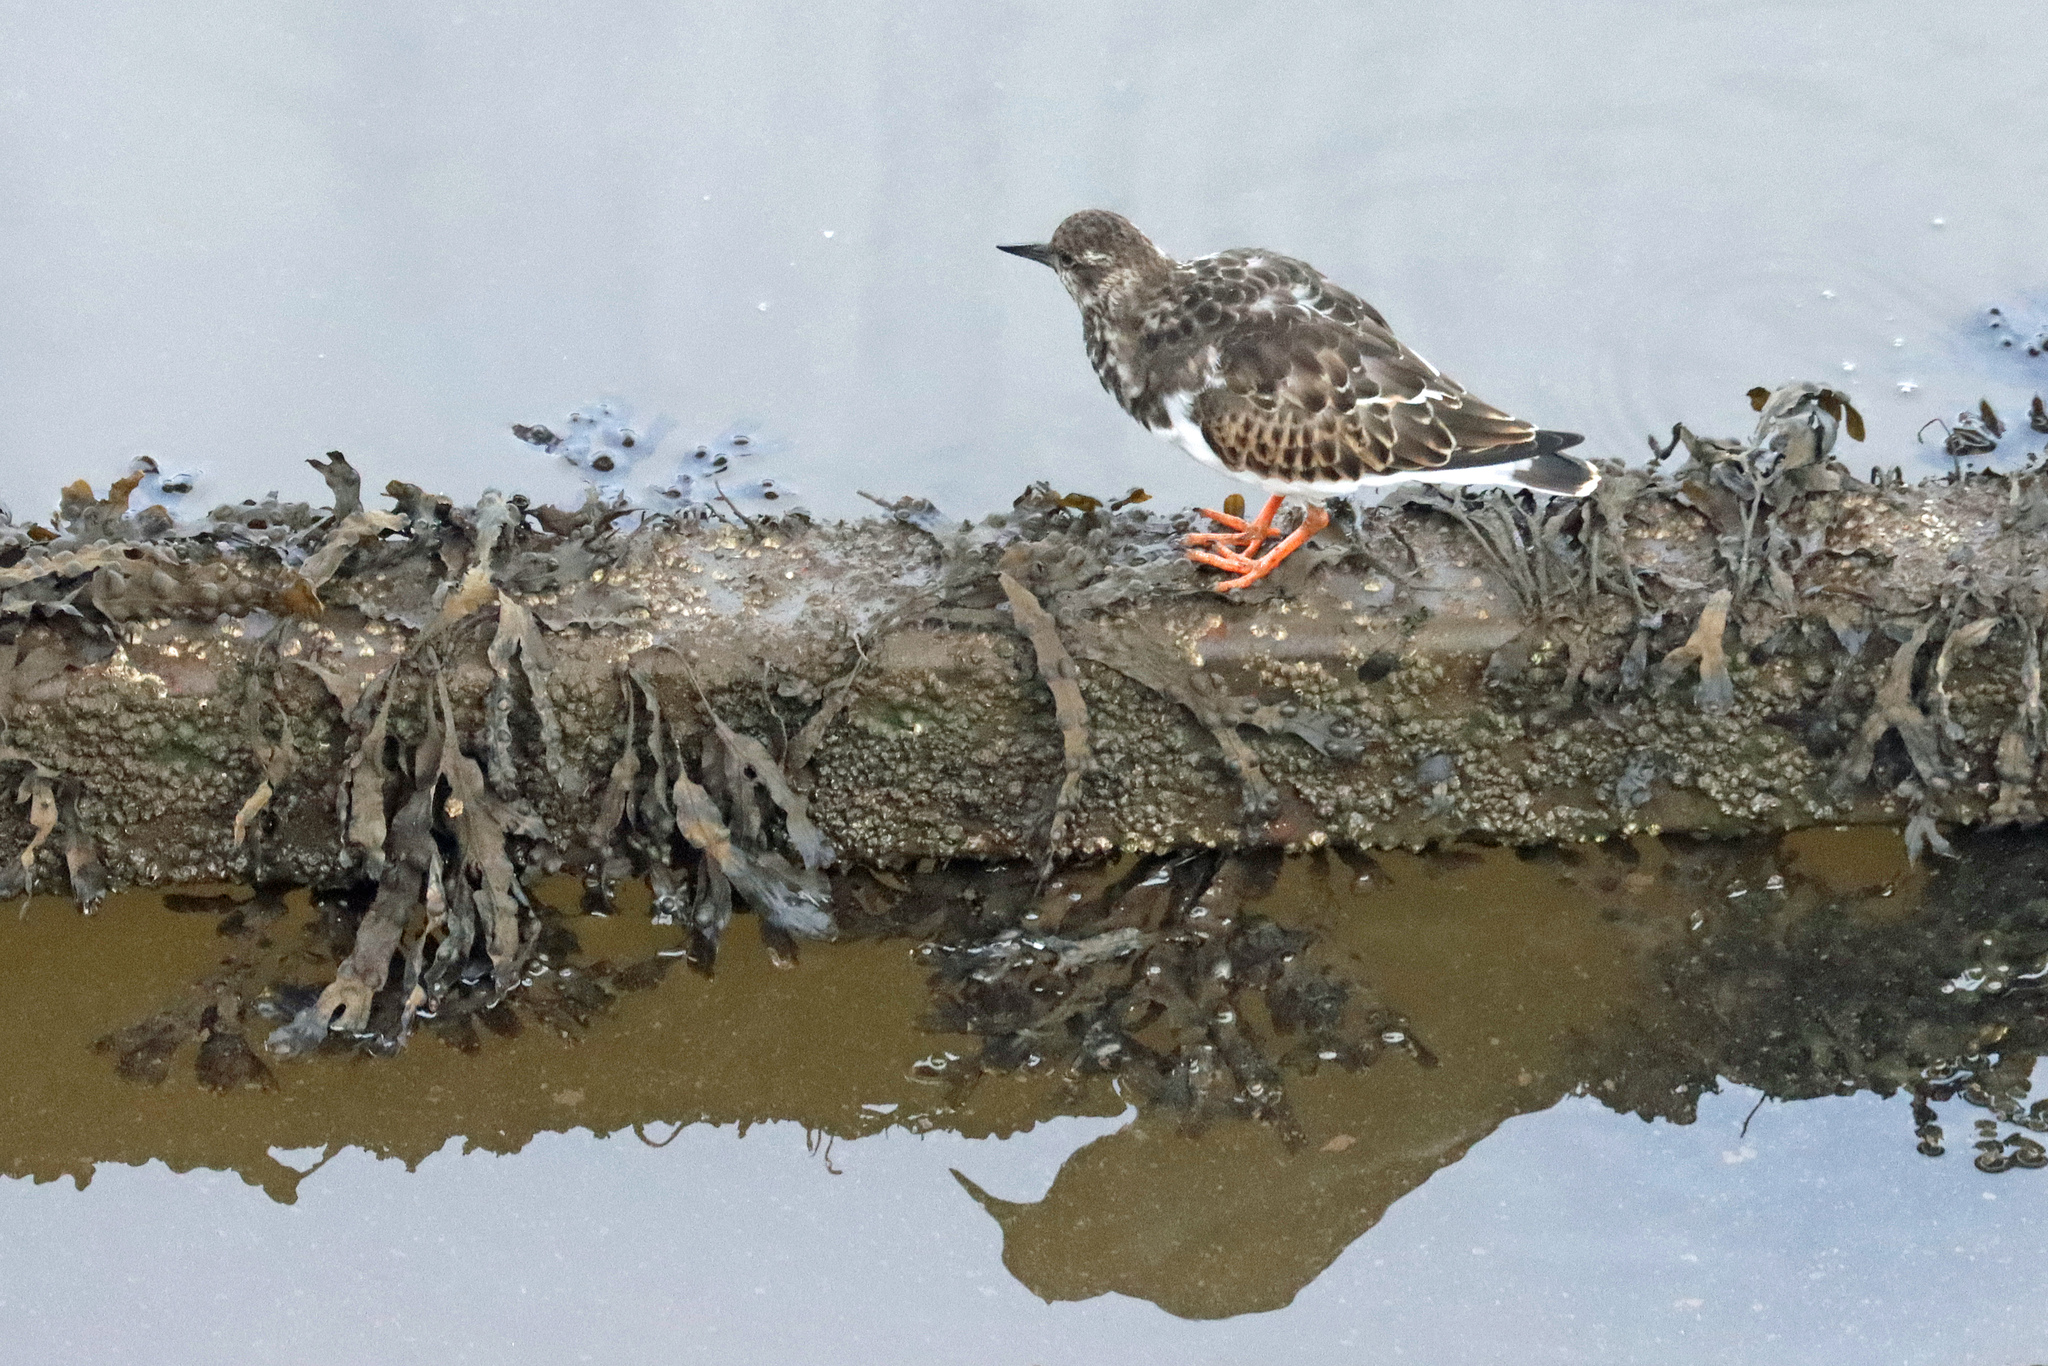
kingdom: Animalia
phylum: Chordata
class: Aves
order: Charadriiformes
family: Scolopacidae
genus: Arenaria
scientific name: Arenaria interpres
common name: Ruddy turnstone
